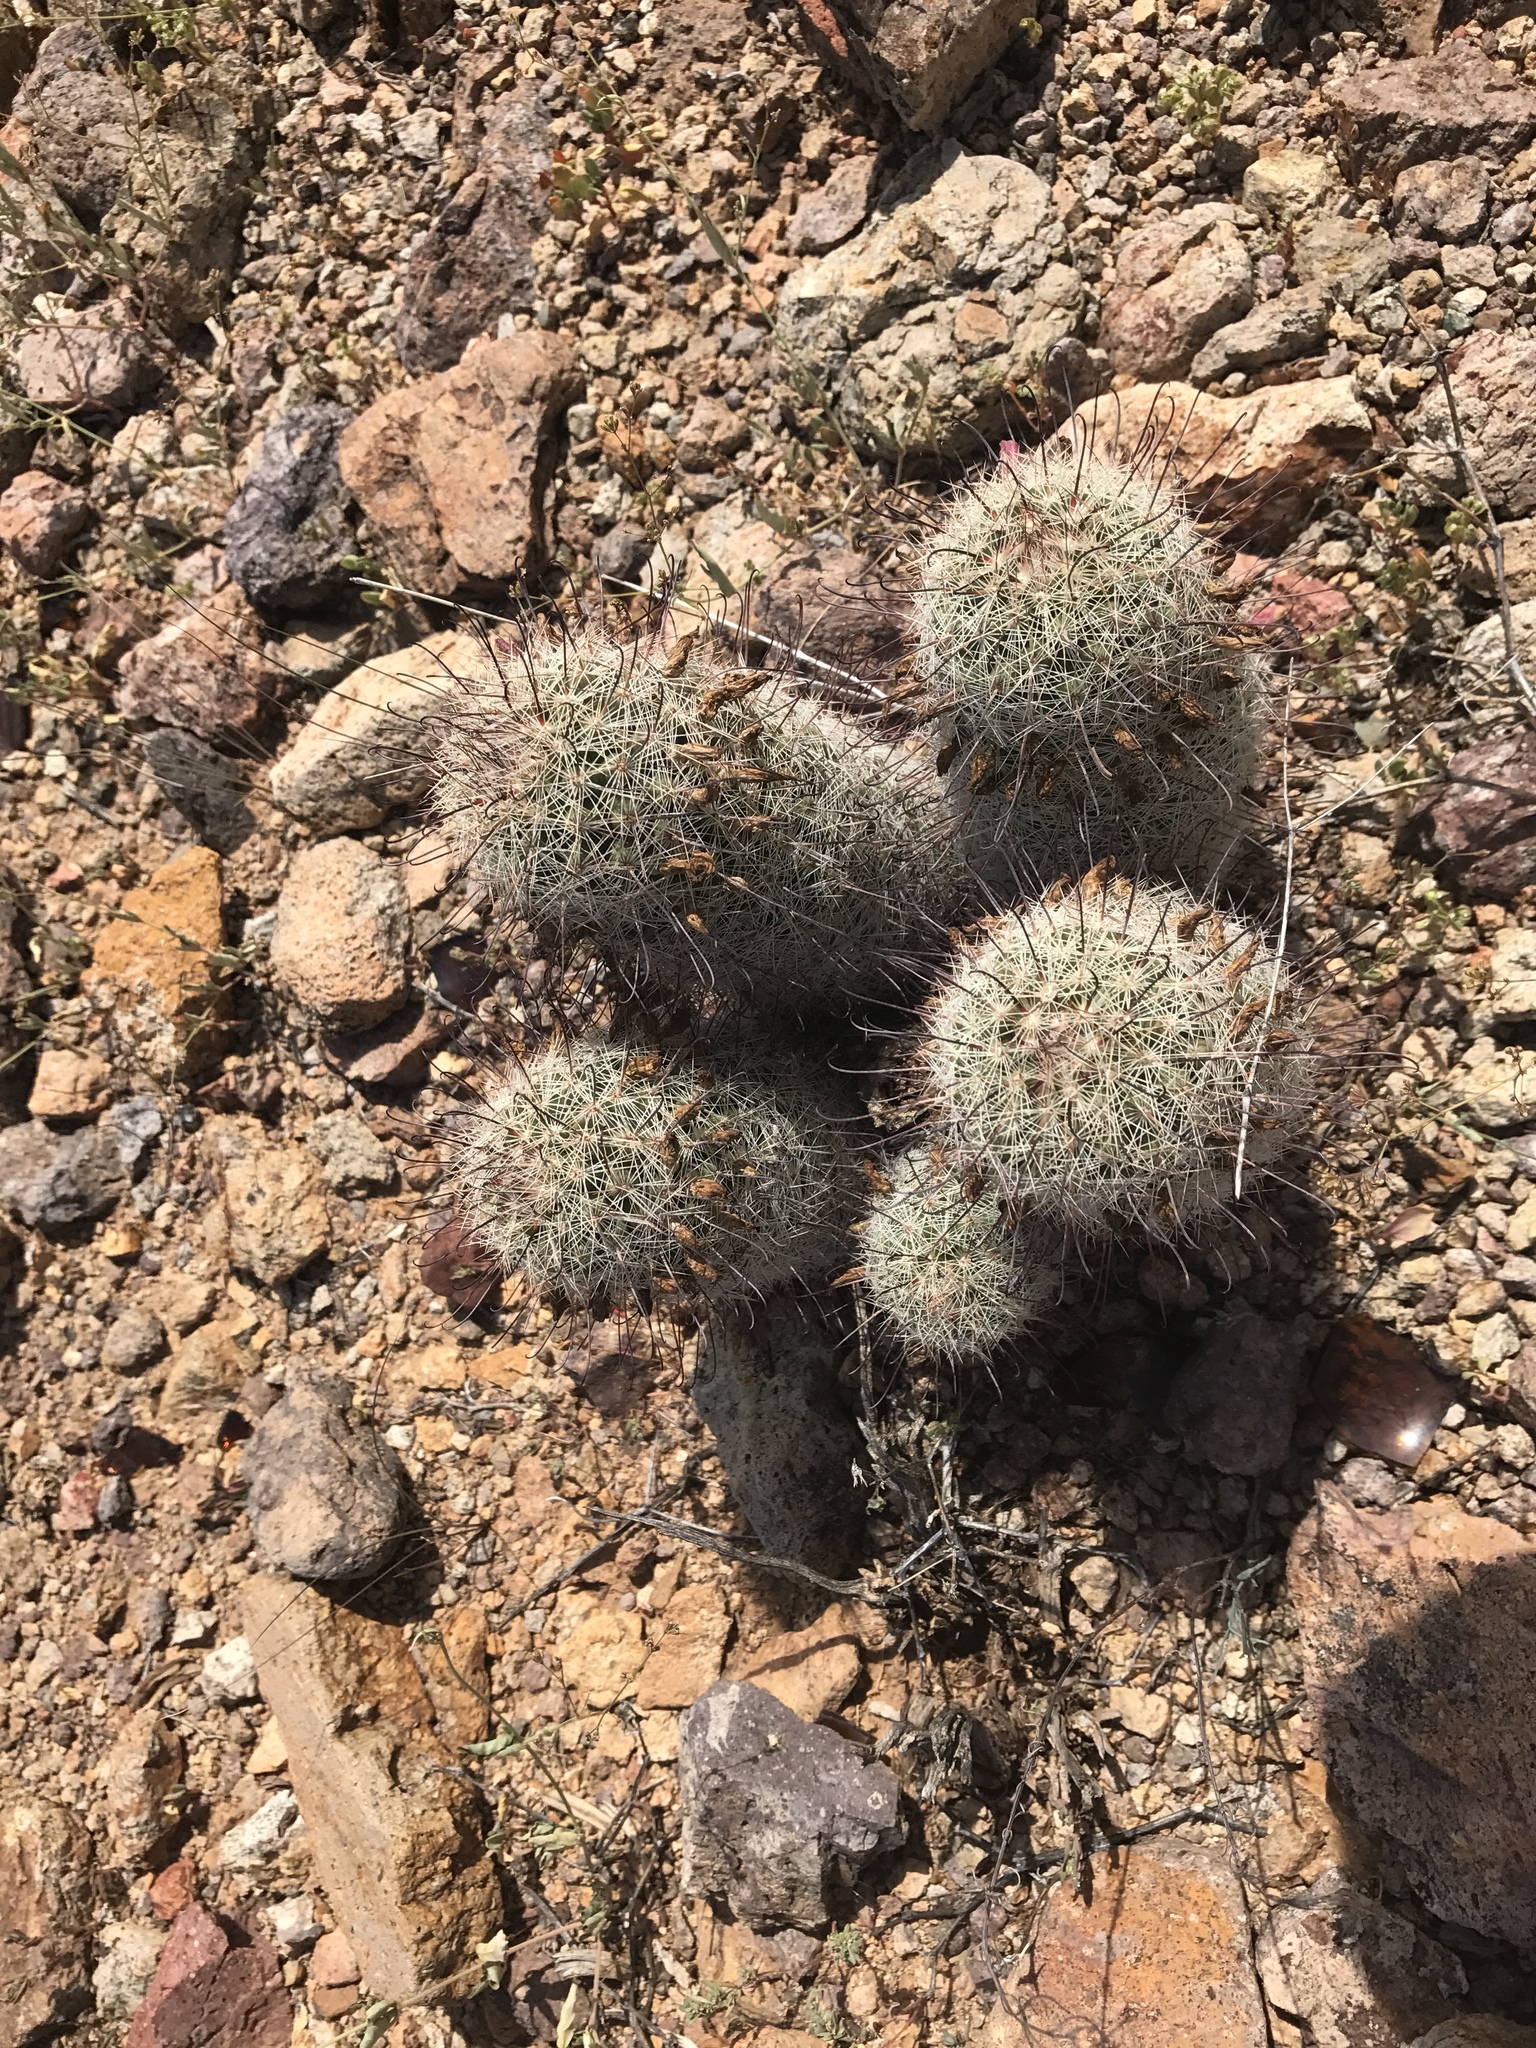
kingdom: Plantae
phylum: Tracheophyta
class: Magnoliopsida
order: Caryophyllales
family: Cactaceae
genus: Cochemiea
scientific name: Cochemiea grahamii
